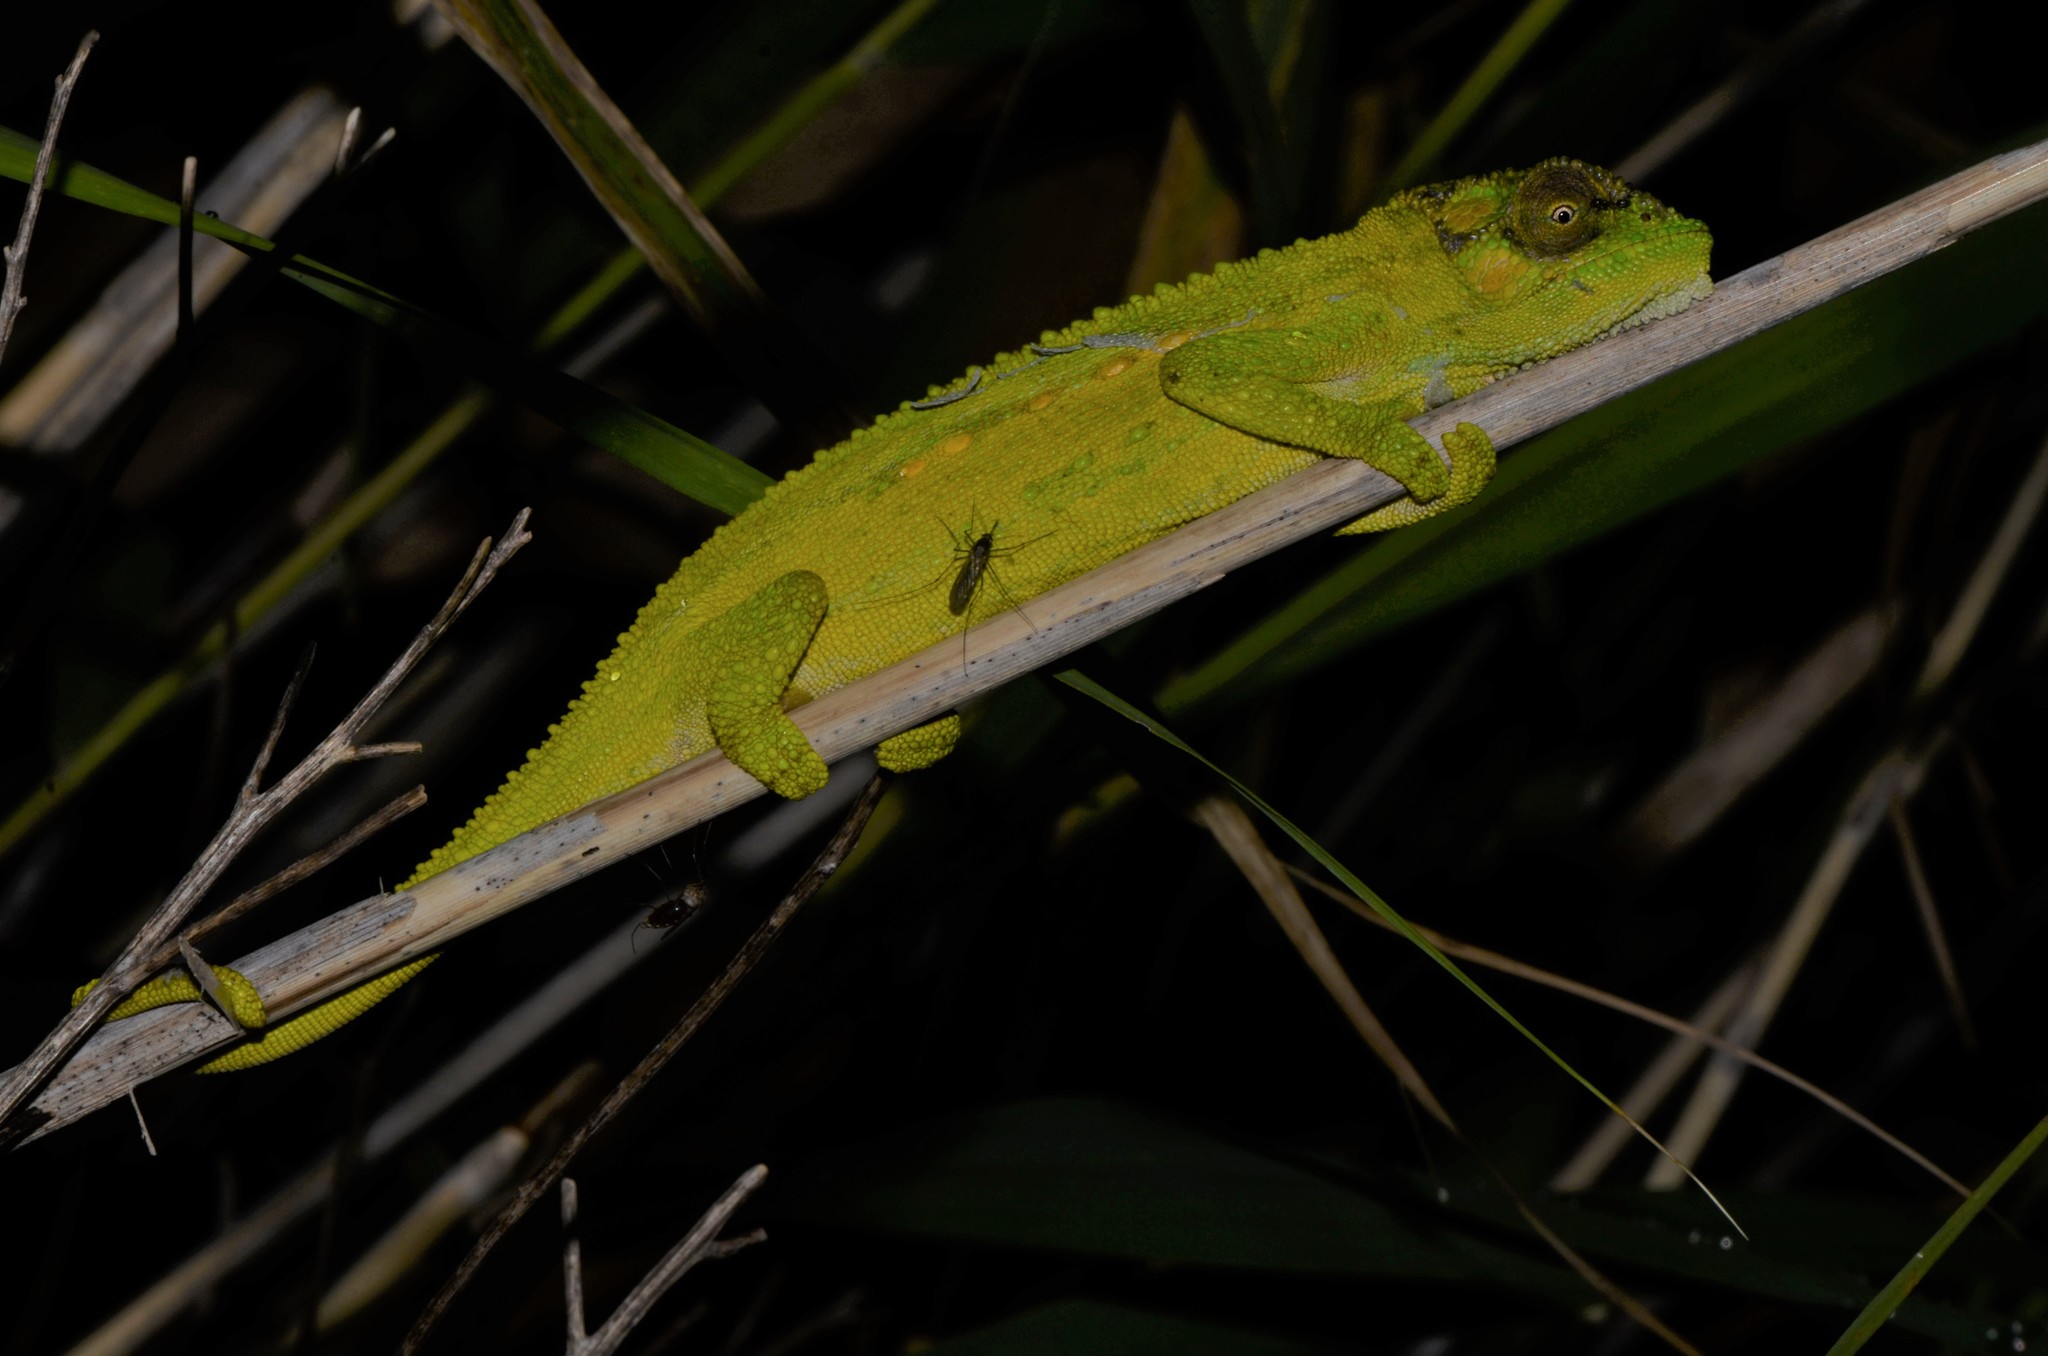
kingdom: Animalia
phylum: Chordata
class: Squamata
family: Chamaeleonidae
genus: Bradypodion
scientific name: Bradypodion pumilum
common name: Cape dwarf chameleon
